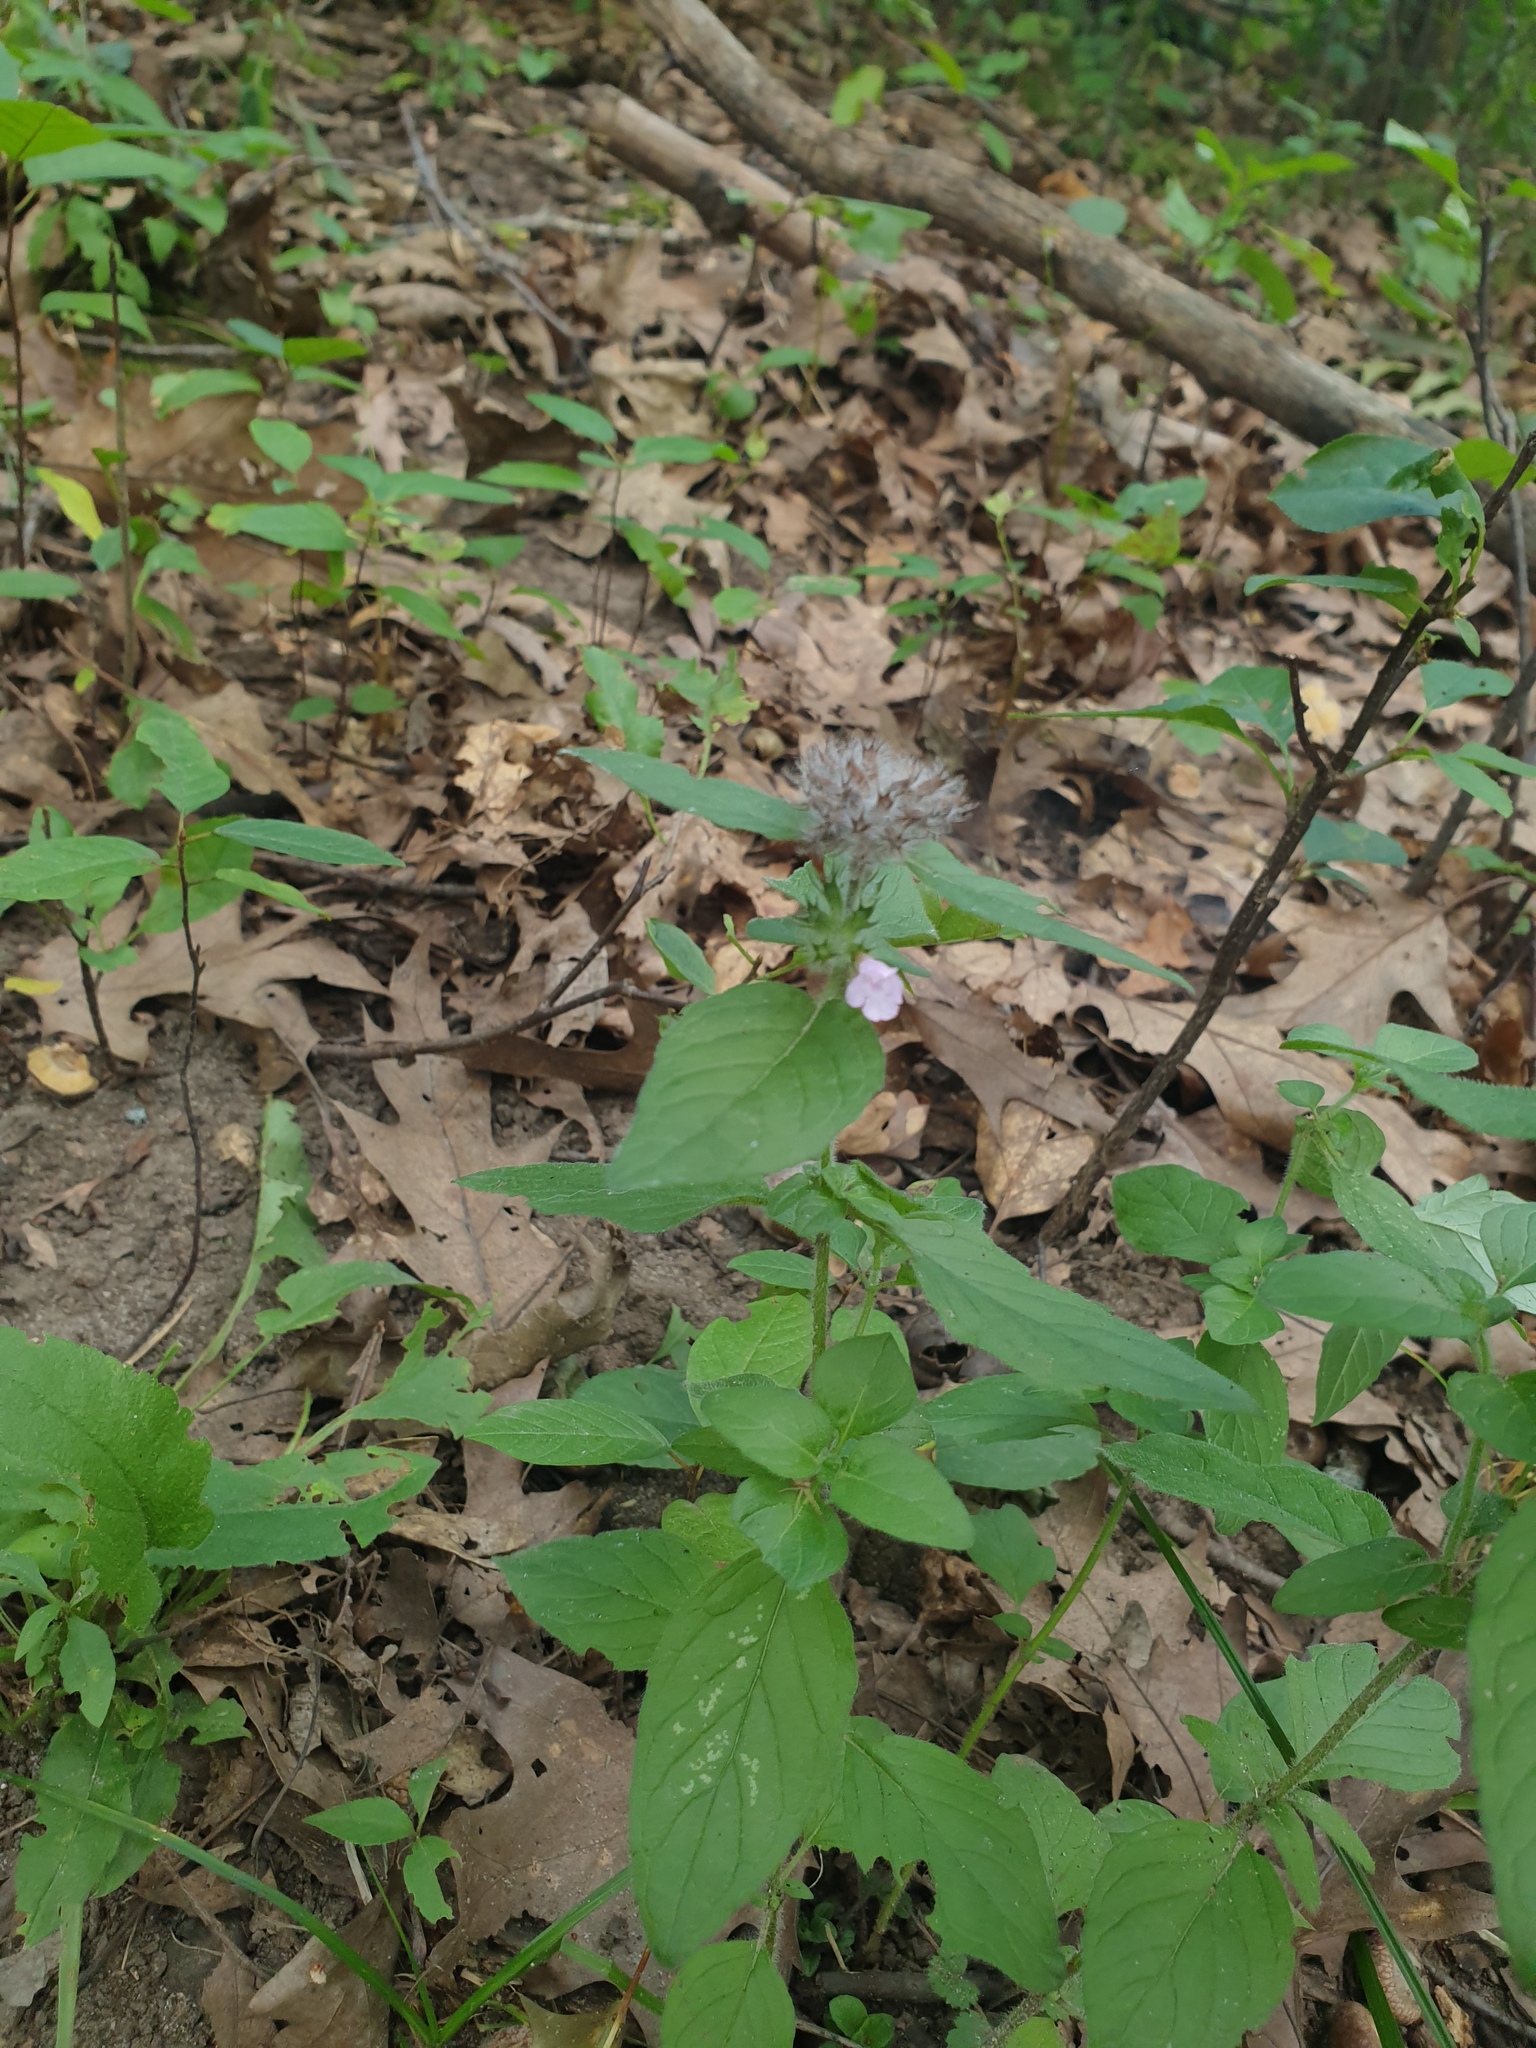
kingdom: Plantae
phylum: Tracheophyta
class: Magnoliopsida
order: Lamiales
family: Lamiaceae
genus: Clinopodium
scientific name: Clinopodium vulgare
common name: Wild basil
